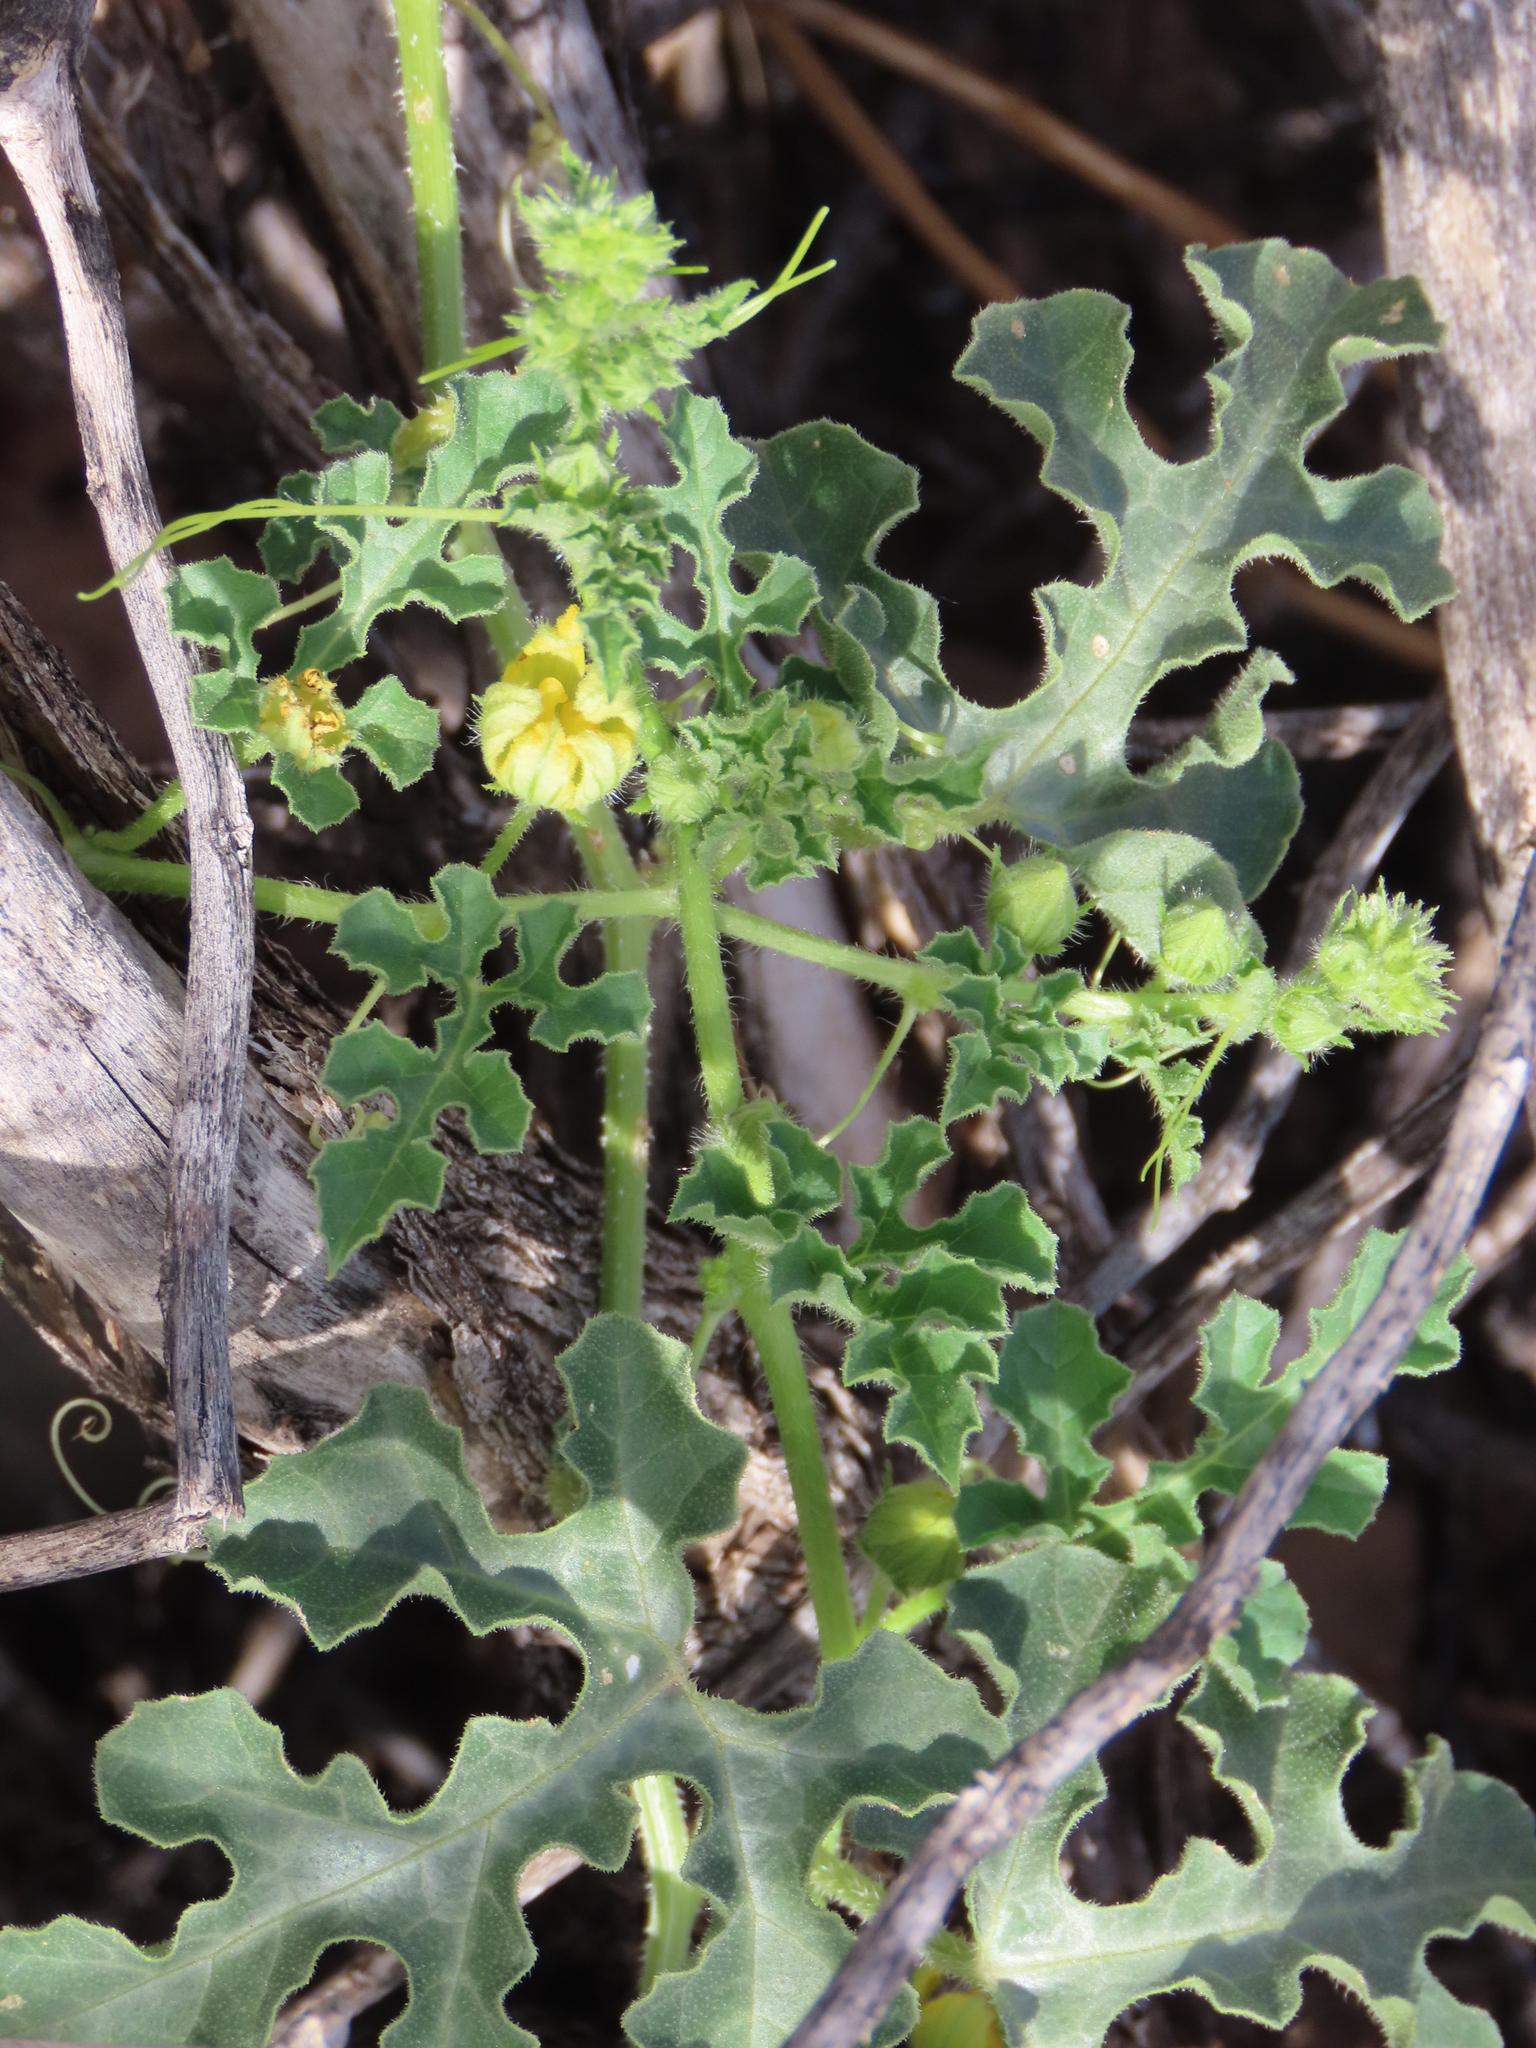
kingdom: Plantae
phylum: Tracheophyta
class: Magnoliopsida
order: Cucurbitales
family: Cucurbitaceae
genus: Citrullus
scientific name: Citrullus amarus
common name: Fodder-melon
